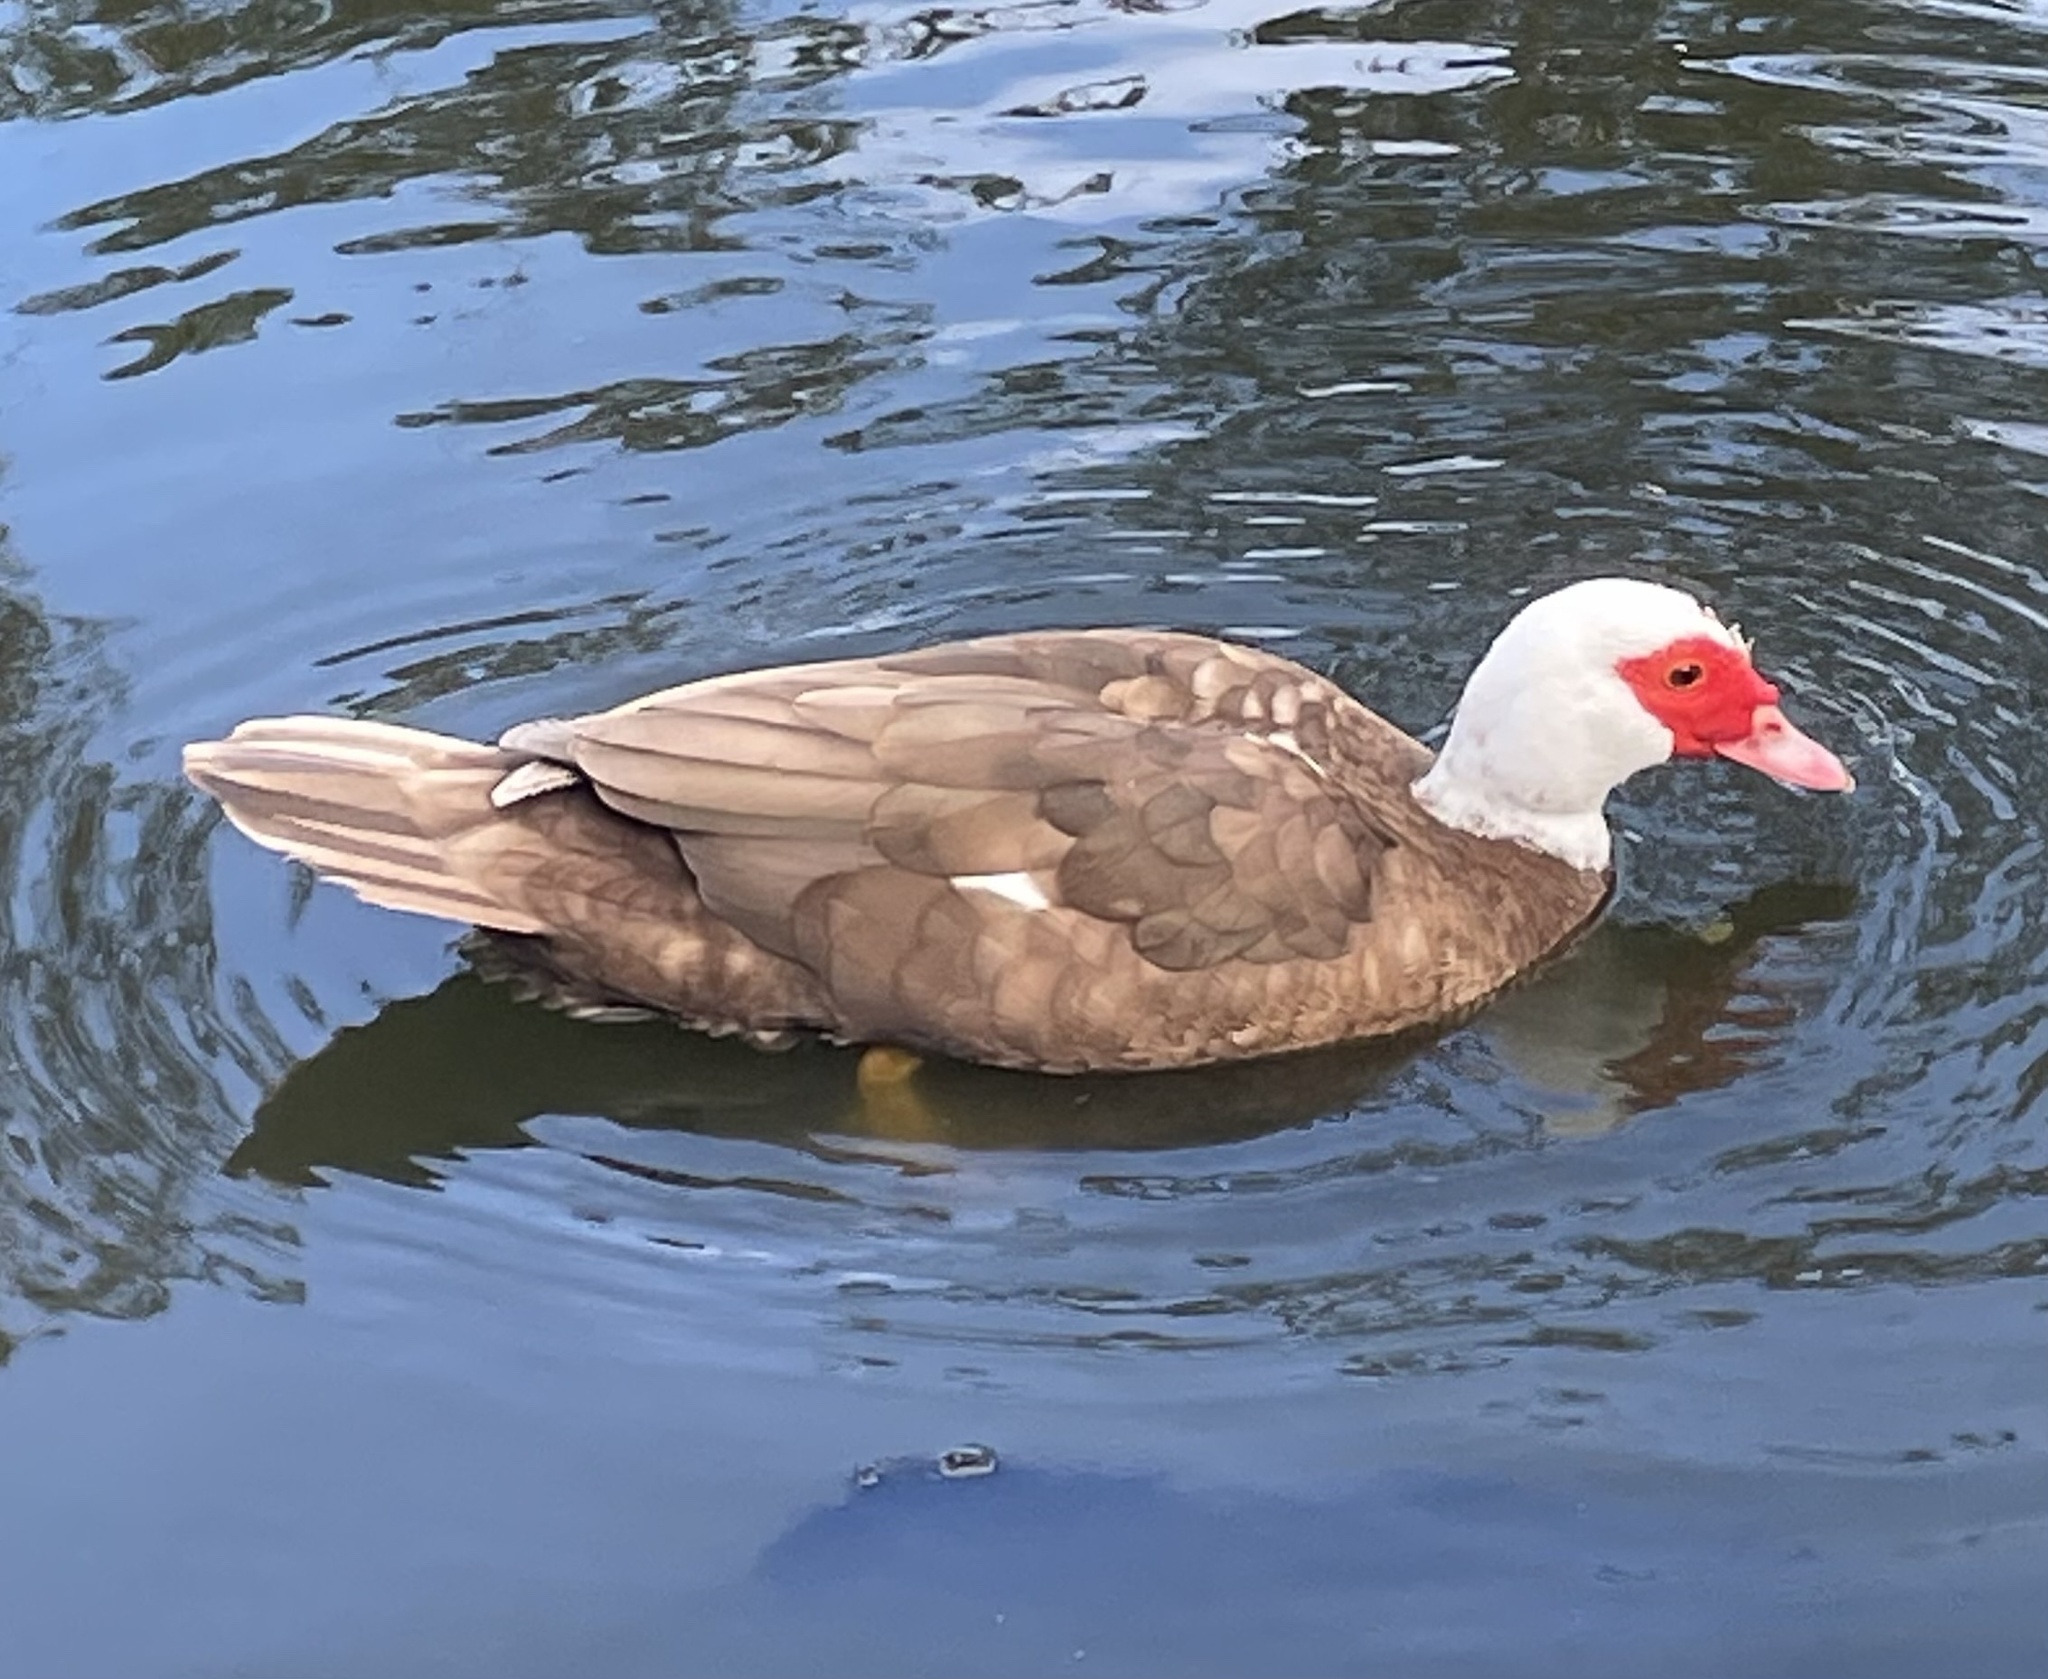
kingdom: Animalia
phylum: Chordata
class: Aves
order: Anseriformes
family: Anatidae
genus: Cairina
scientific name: Cairina moschata
